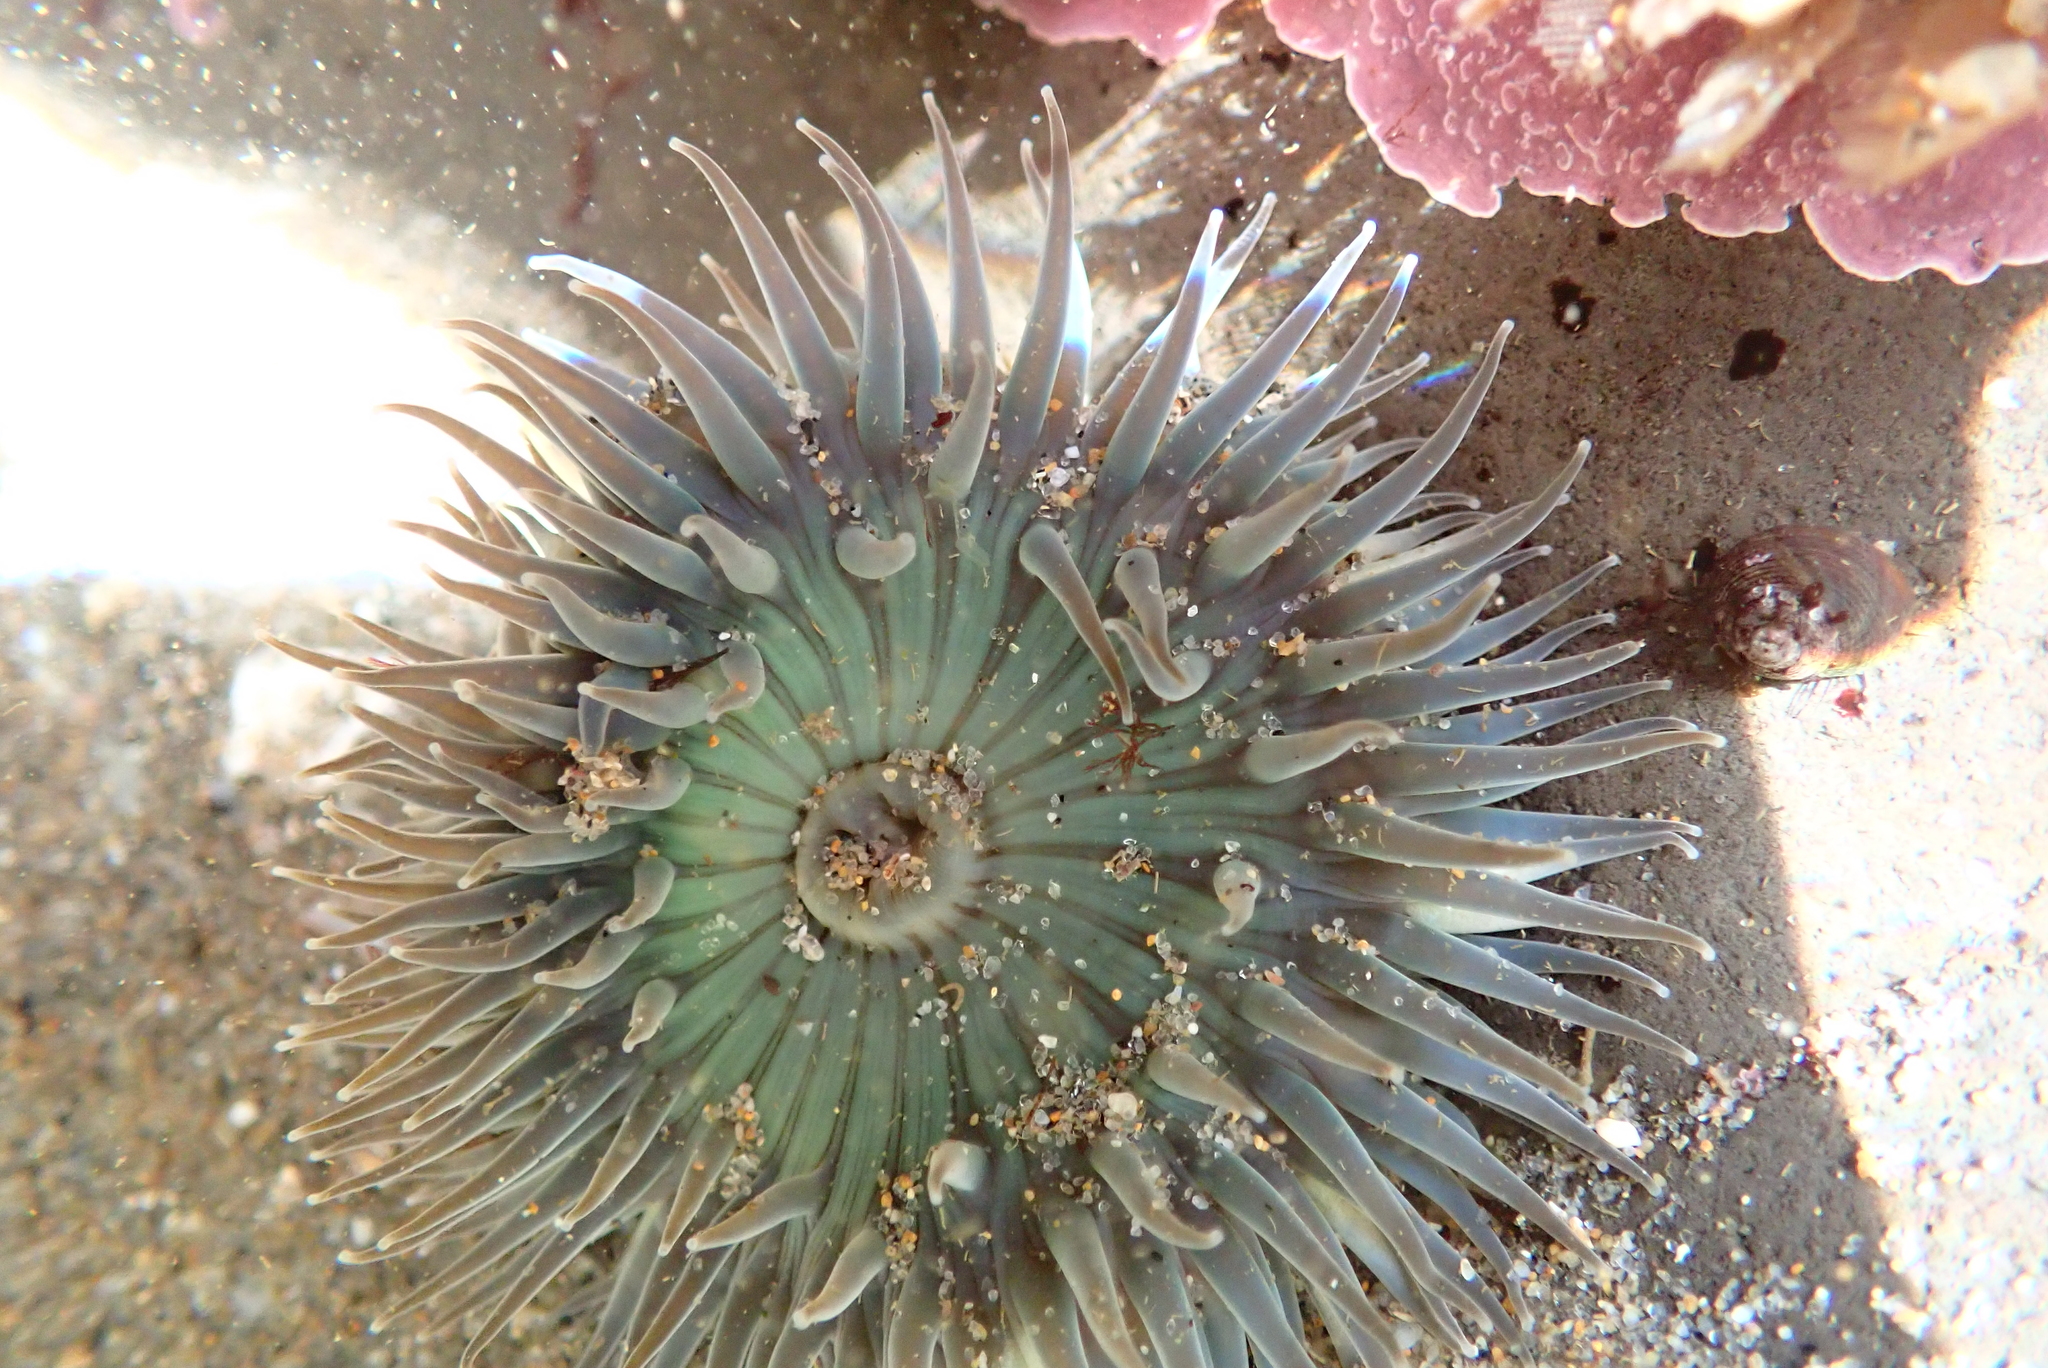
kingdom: Animalia
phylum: Cnidaria
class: Anthozoa
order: Actiniaria
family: Actiniidae
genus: Anthopleura
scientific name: Anthopleura sola
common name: Sun anemone
